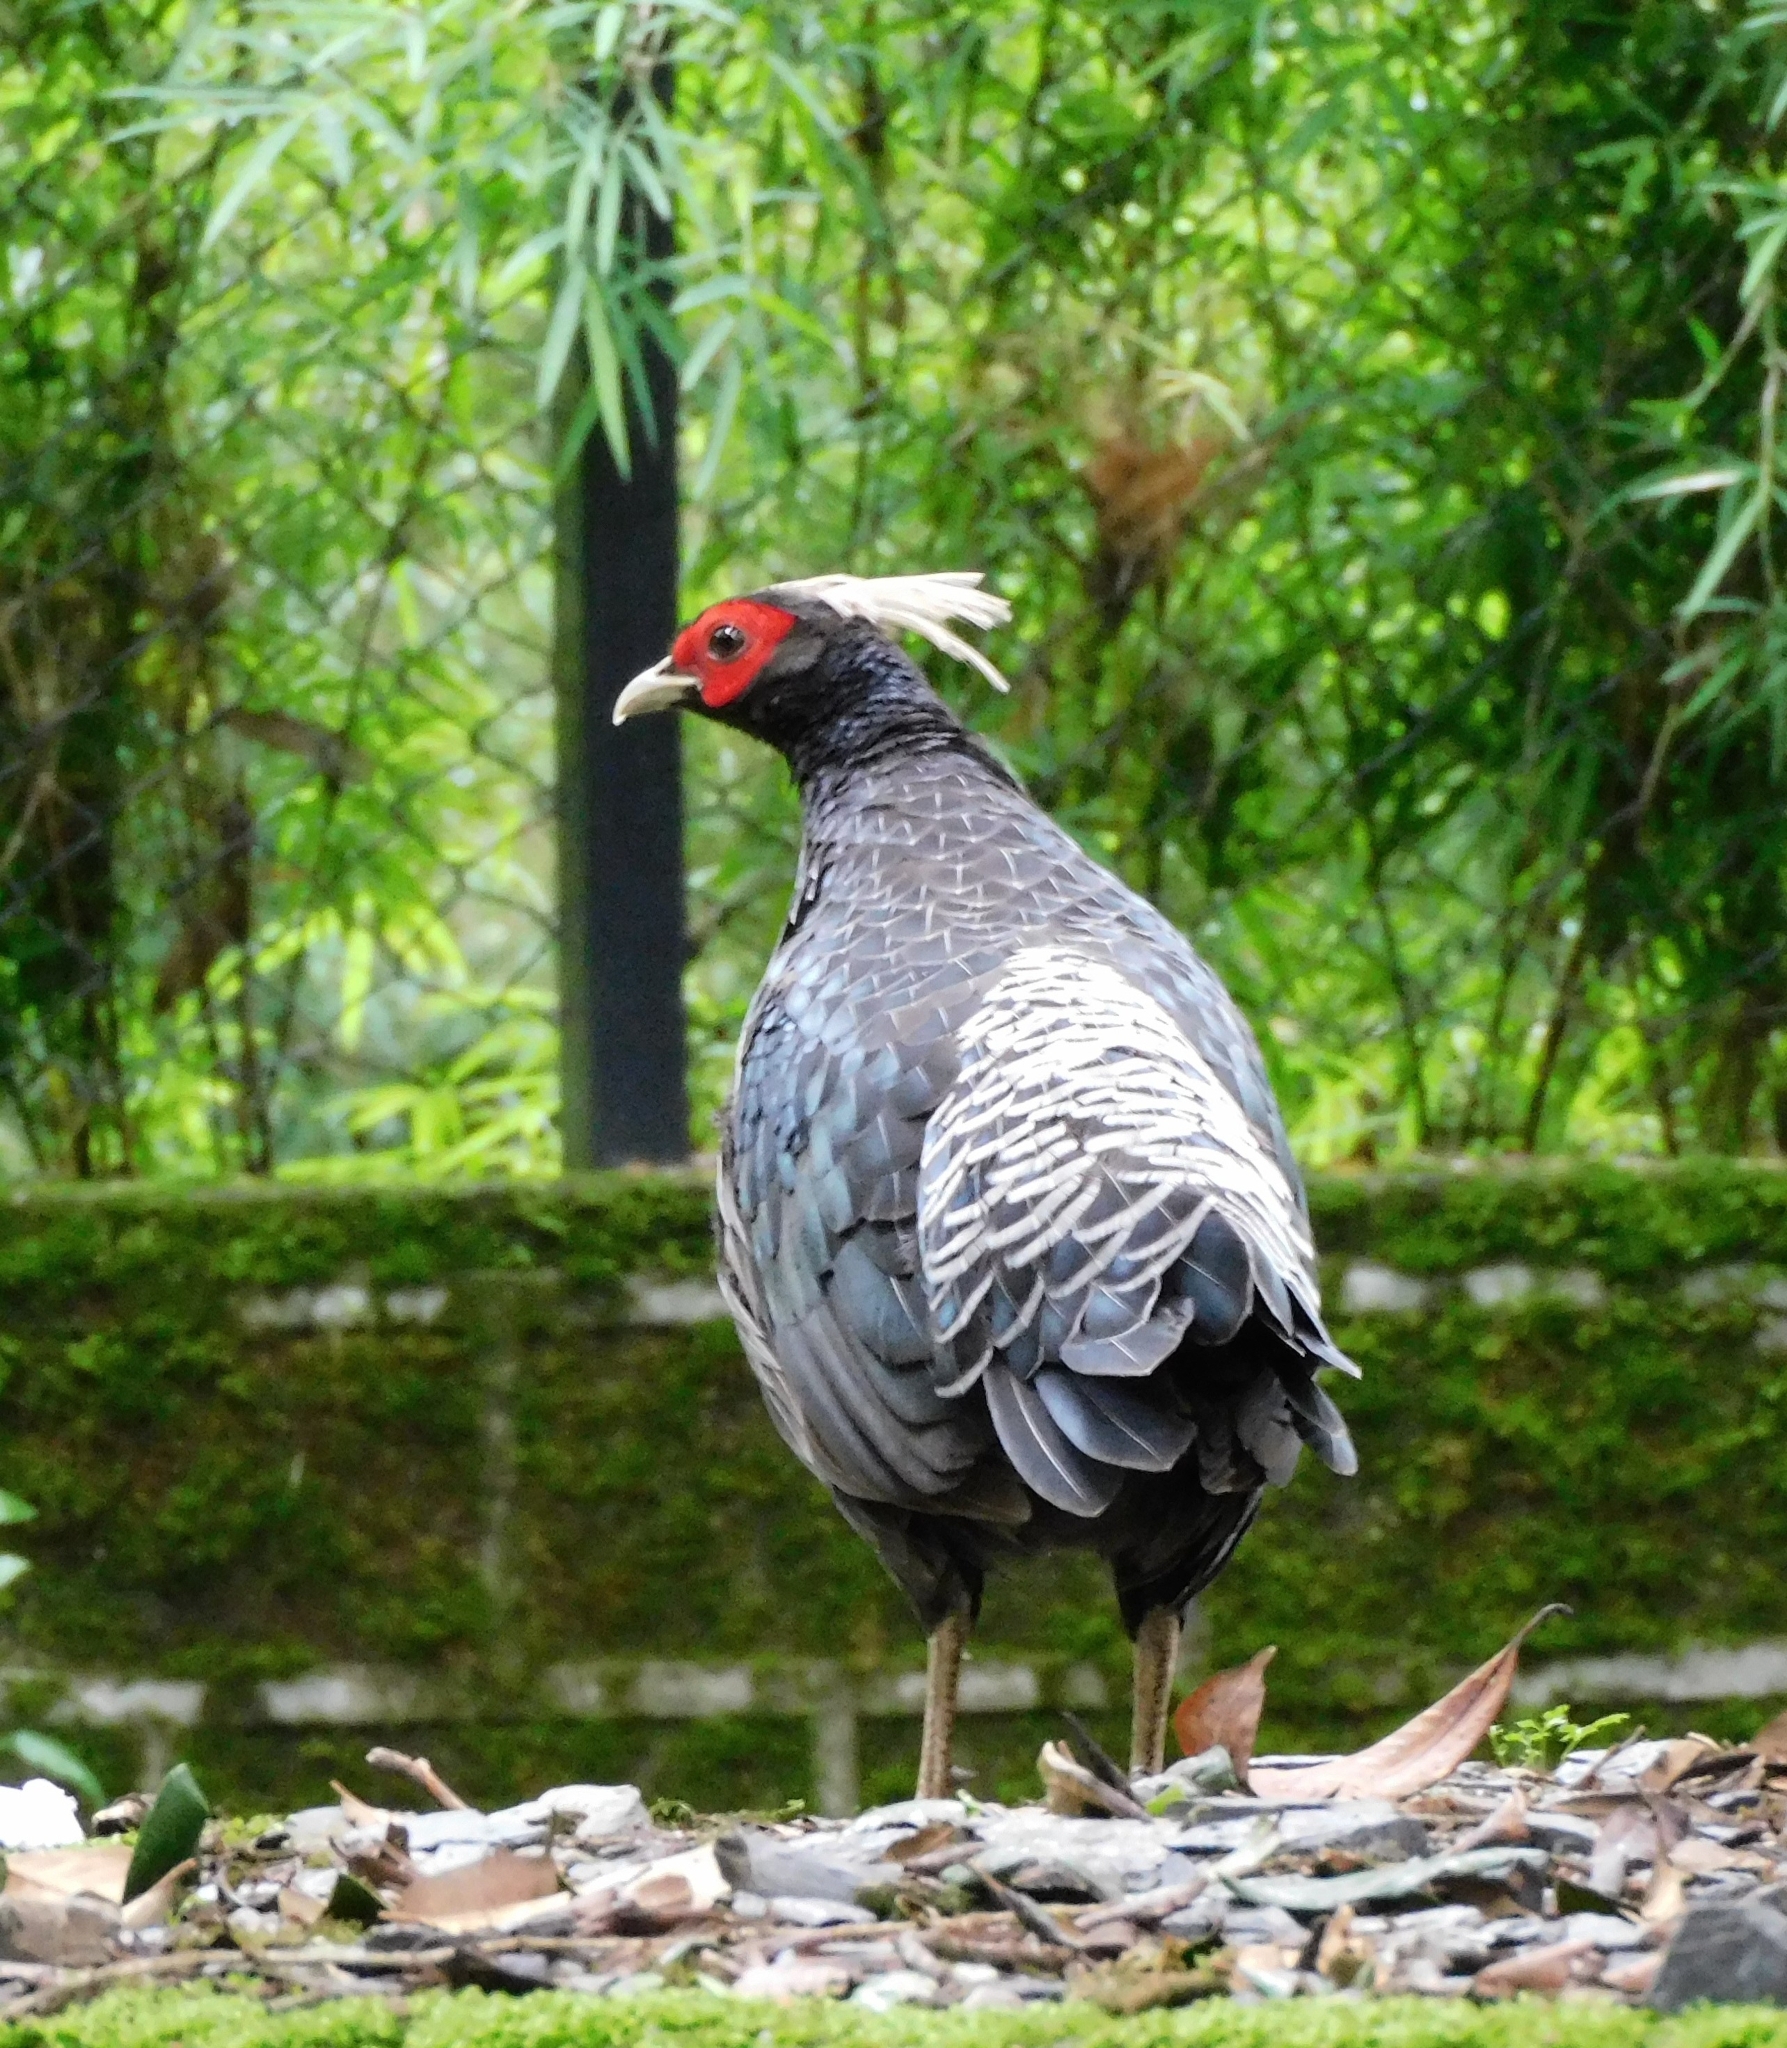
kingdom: Animalia
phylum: Chordata
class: Aves
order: Galliformes
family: Phasianidae
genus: Lophura
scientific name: Lophura leucomelanos
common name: Kalij pheasant
